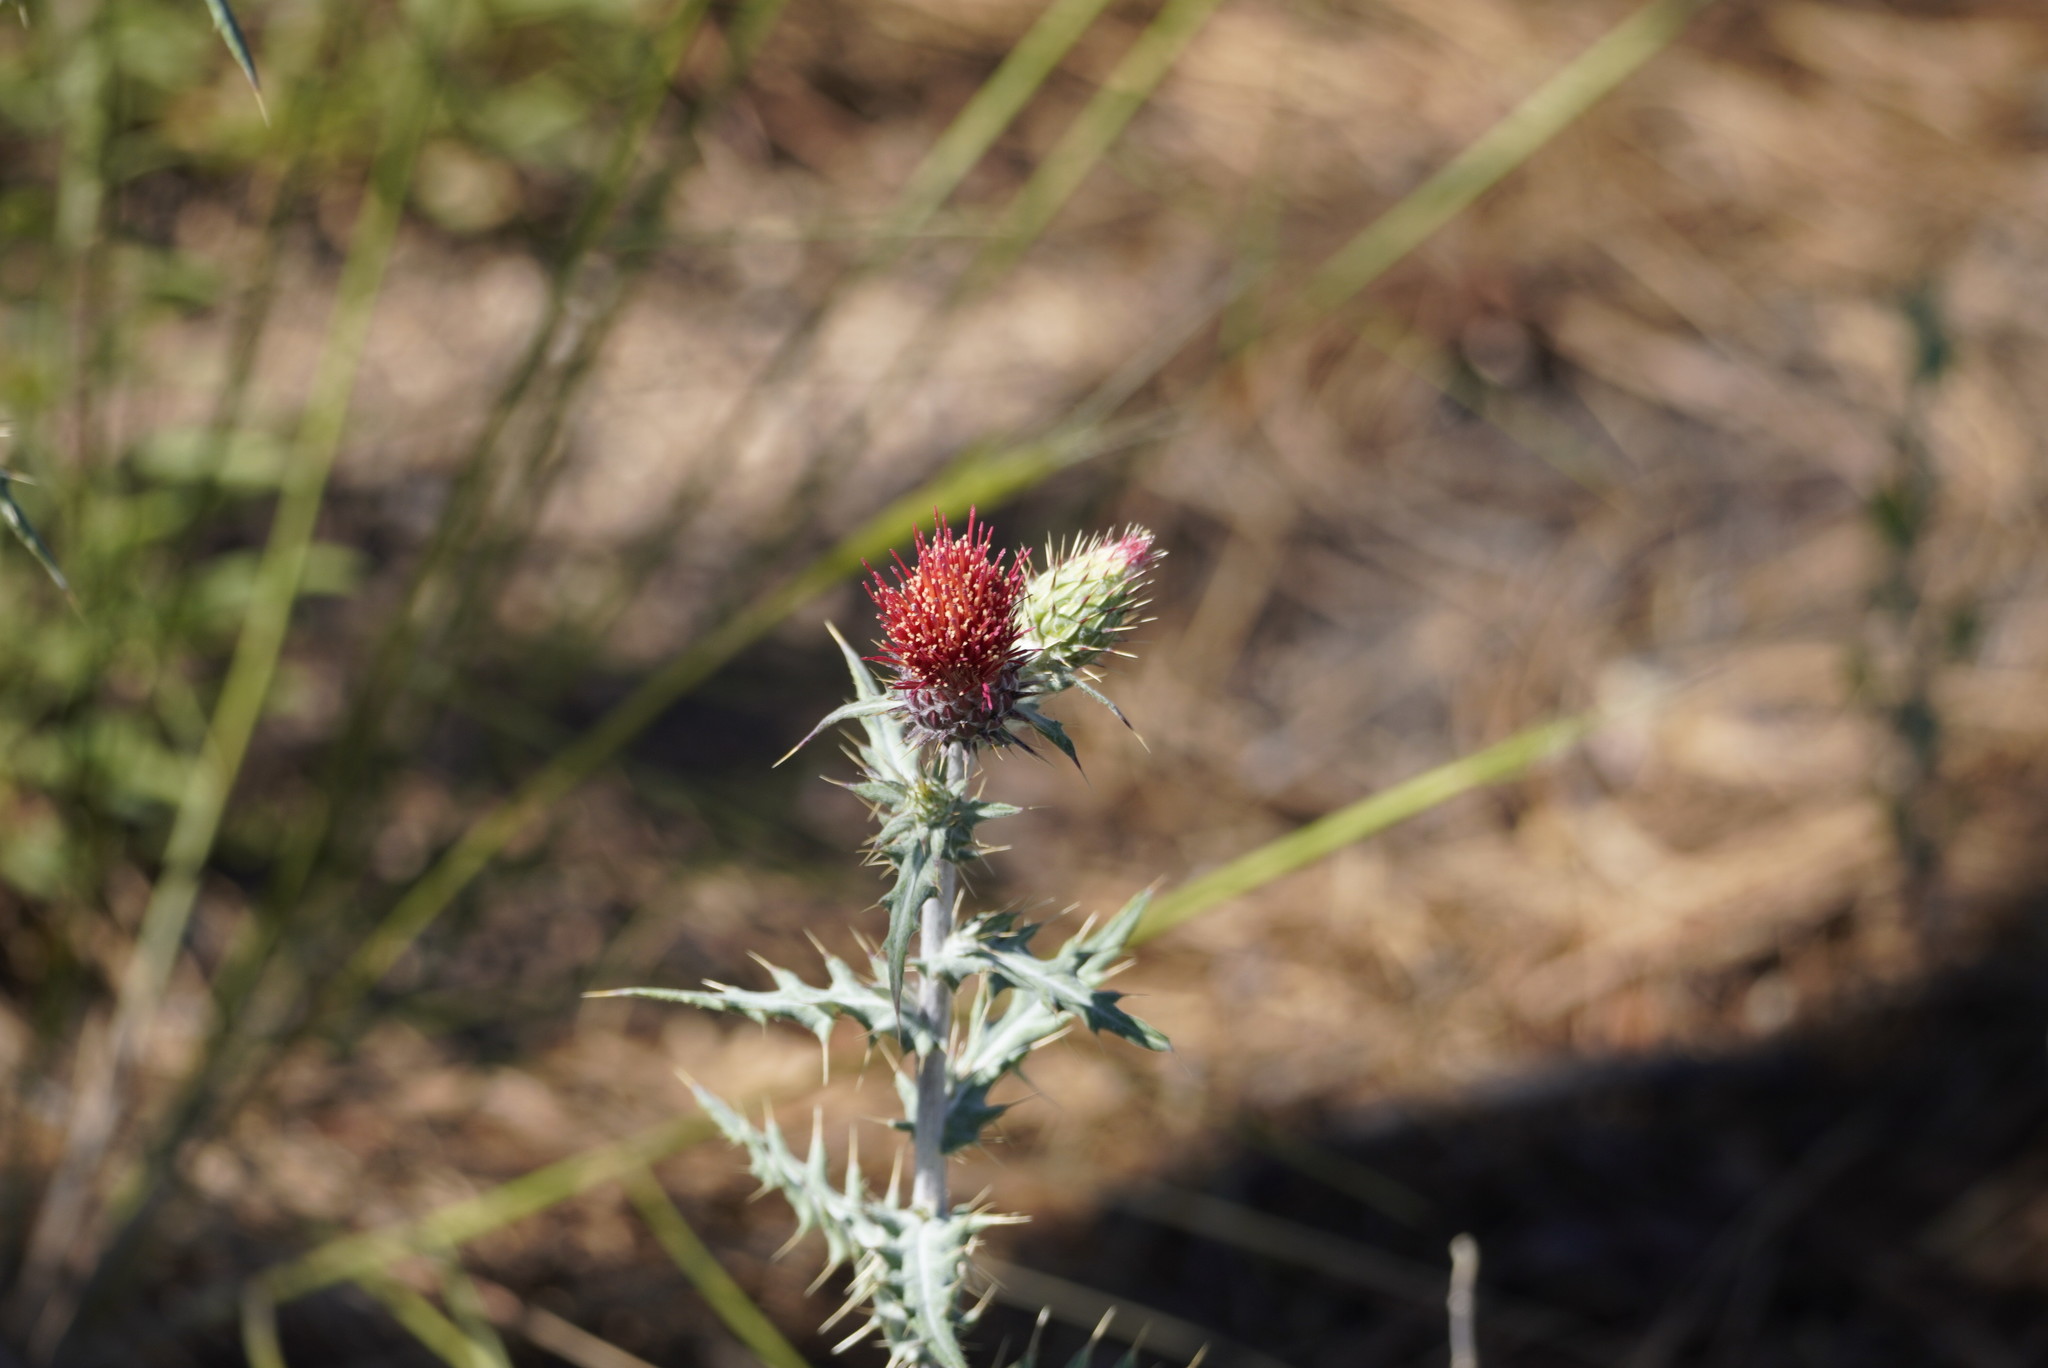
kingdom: Plantae
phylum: Tracheophyta
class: Magnoliopsida
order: Asterales
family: Asteraceae
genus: Cirsium
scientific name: Cirsium arizonicum
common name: Arizona thistle
